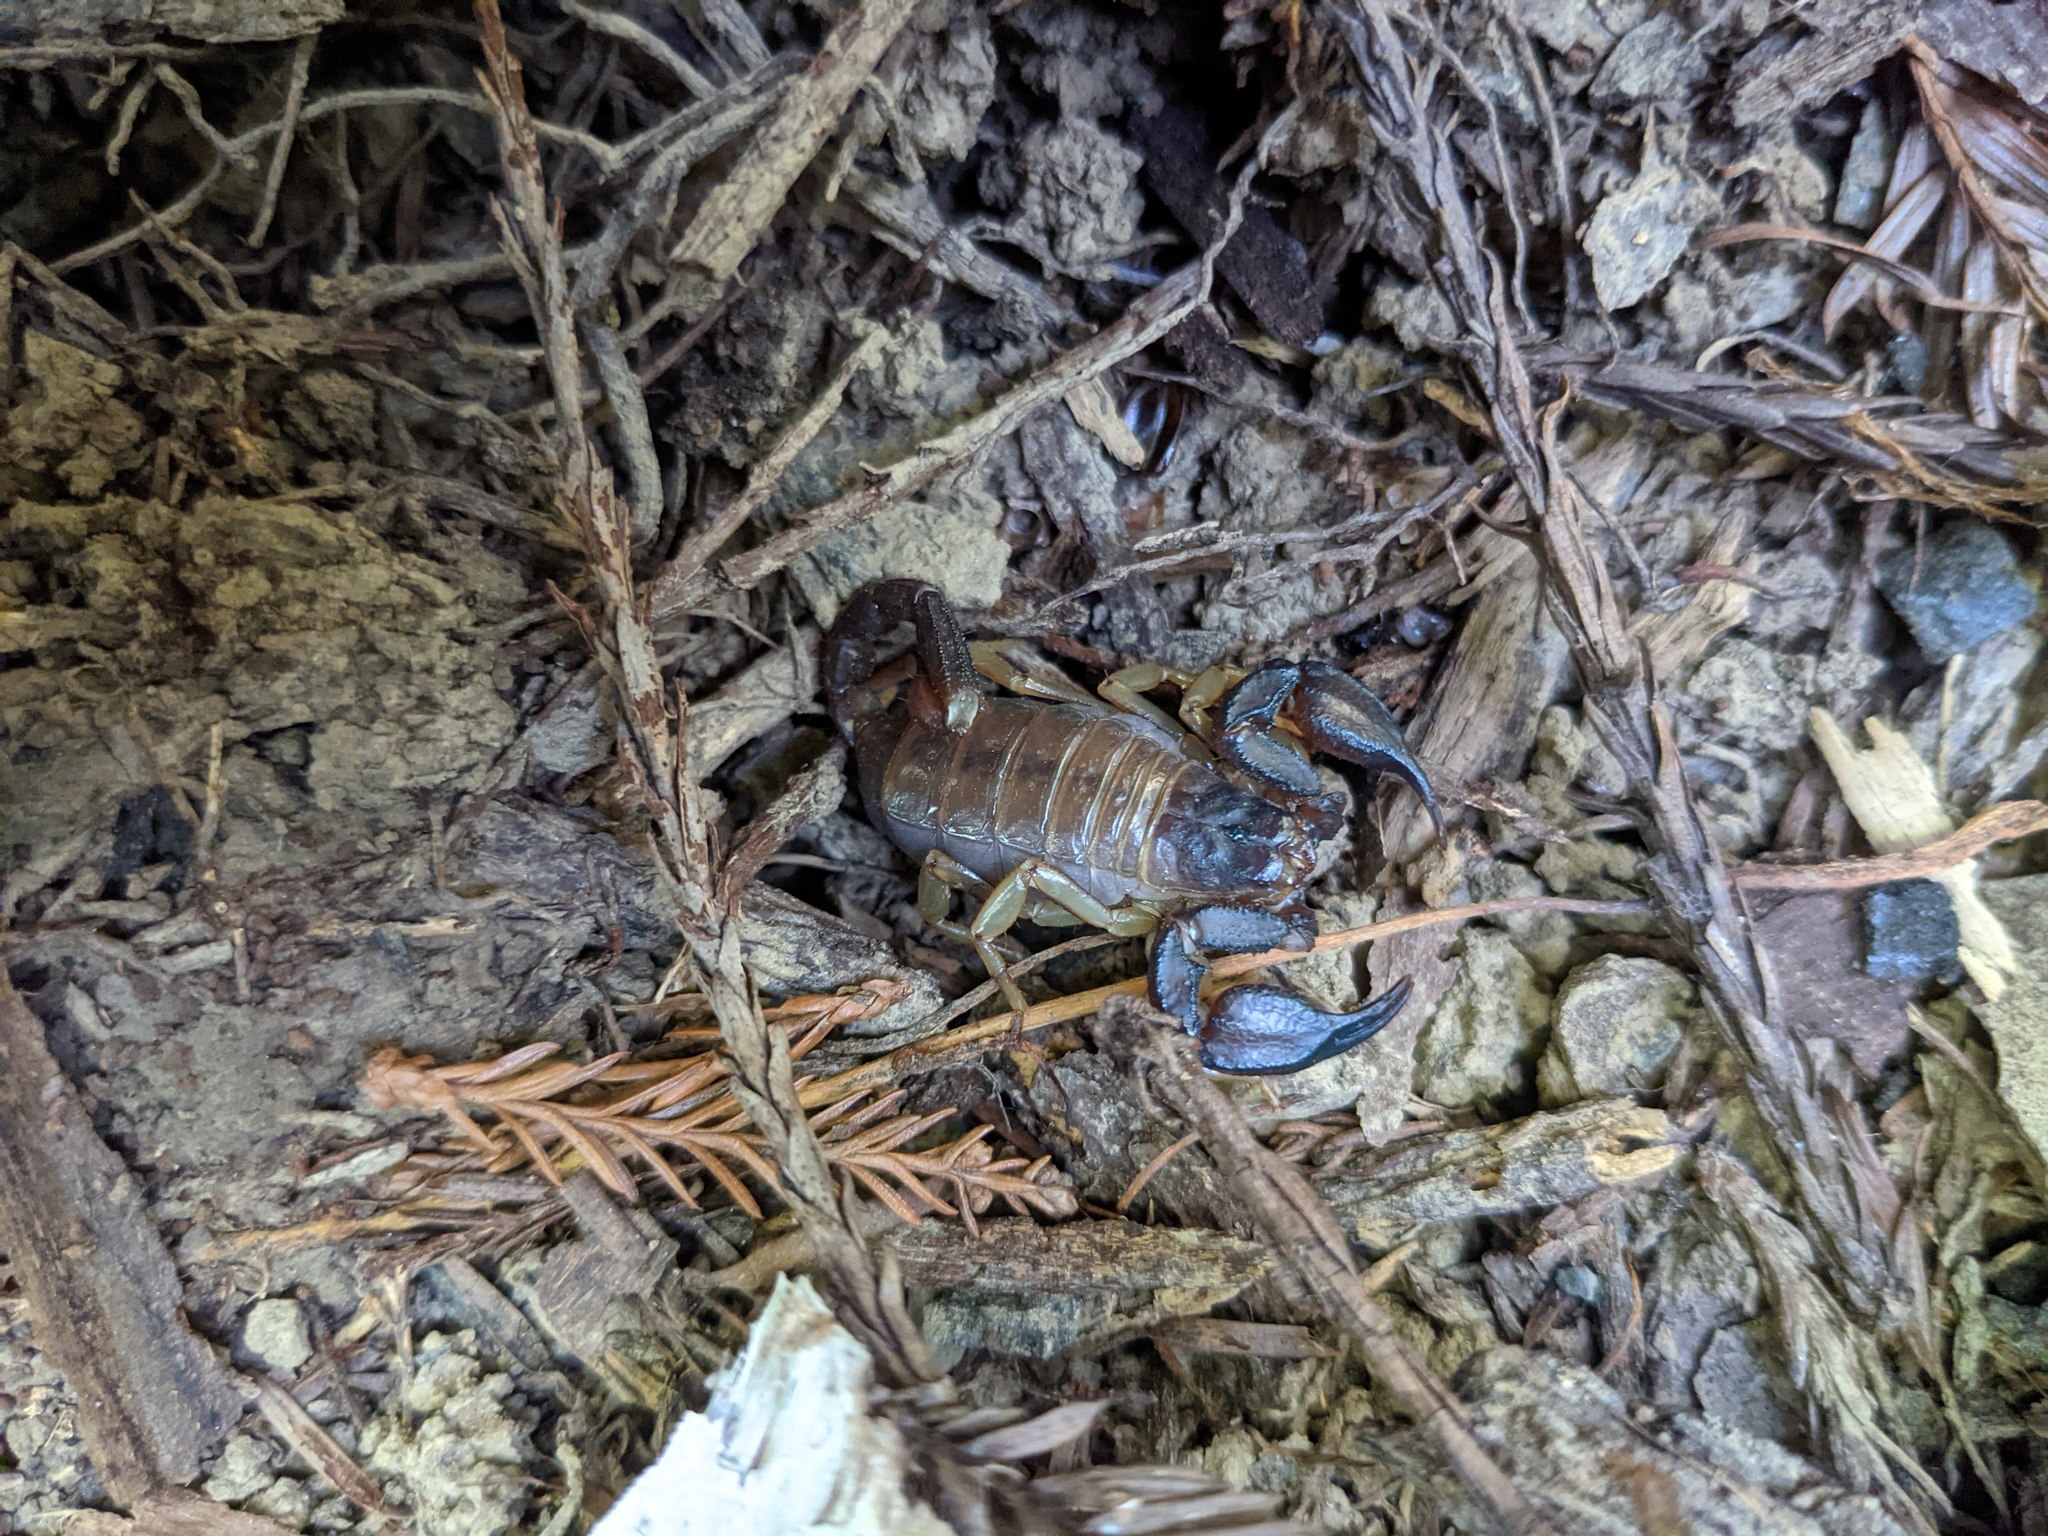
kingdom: Animalia
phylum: Arthropoda
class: Arachnida
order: Scorpiones
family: Chactidae
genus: Uroctonus
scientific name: Uroctonus mordax
